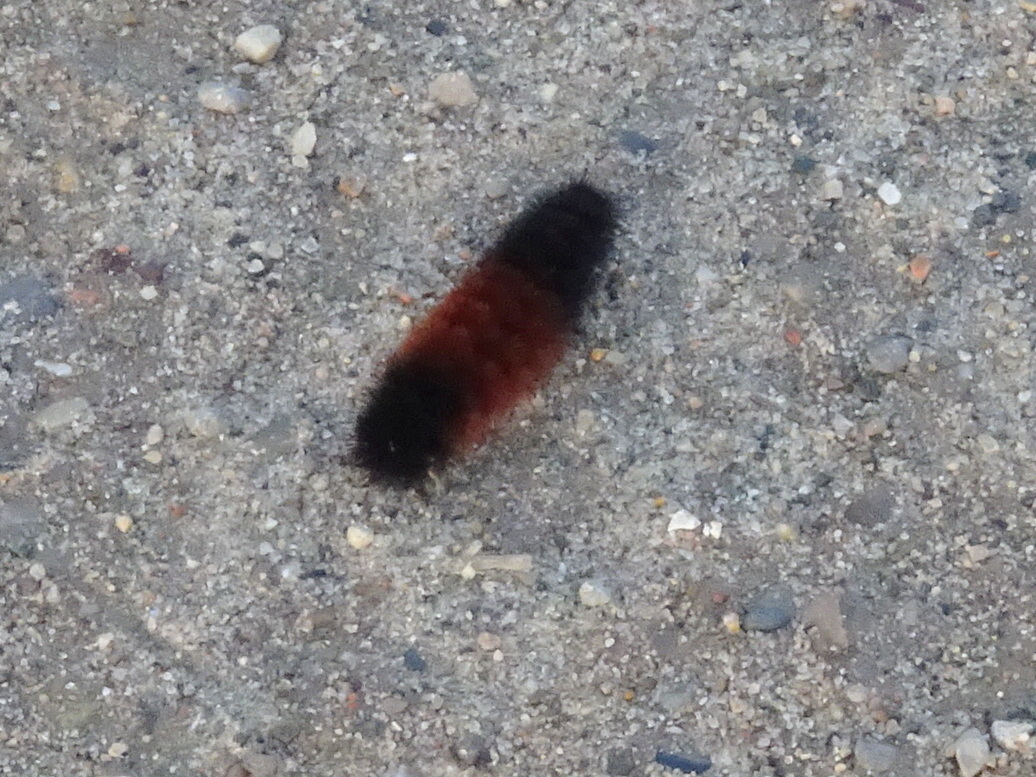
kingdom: Animalia
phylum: Arthropoda
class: Insecta
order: Lepidoptera
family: Erebidae
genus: Pyrrharctia
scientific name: Pyrrharctia isabella
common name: Isabella tiger moth
